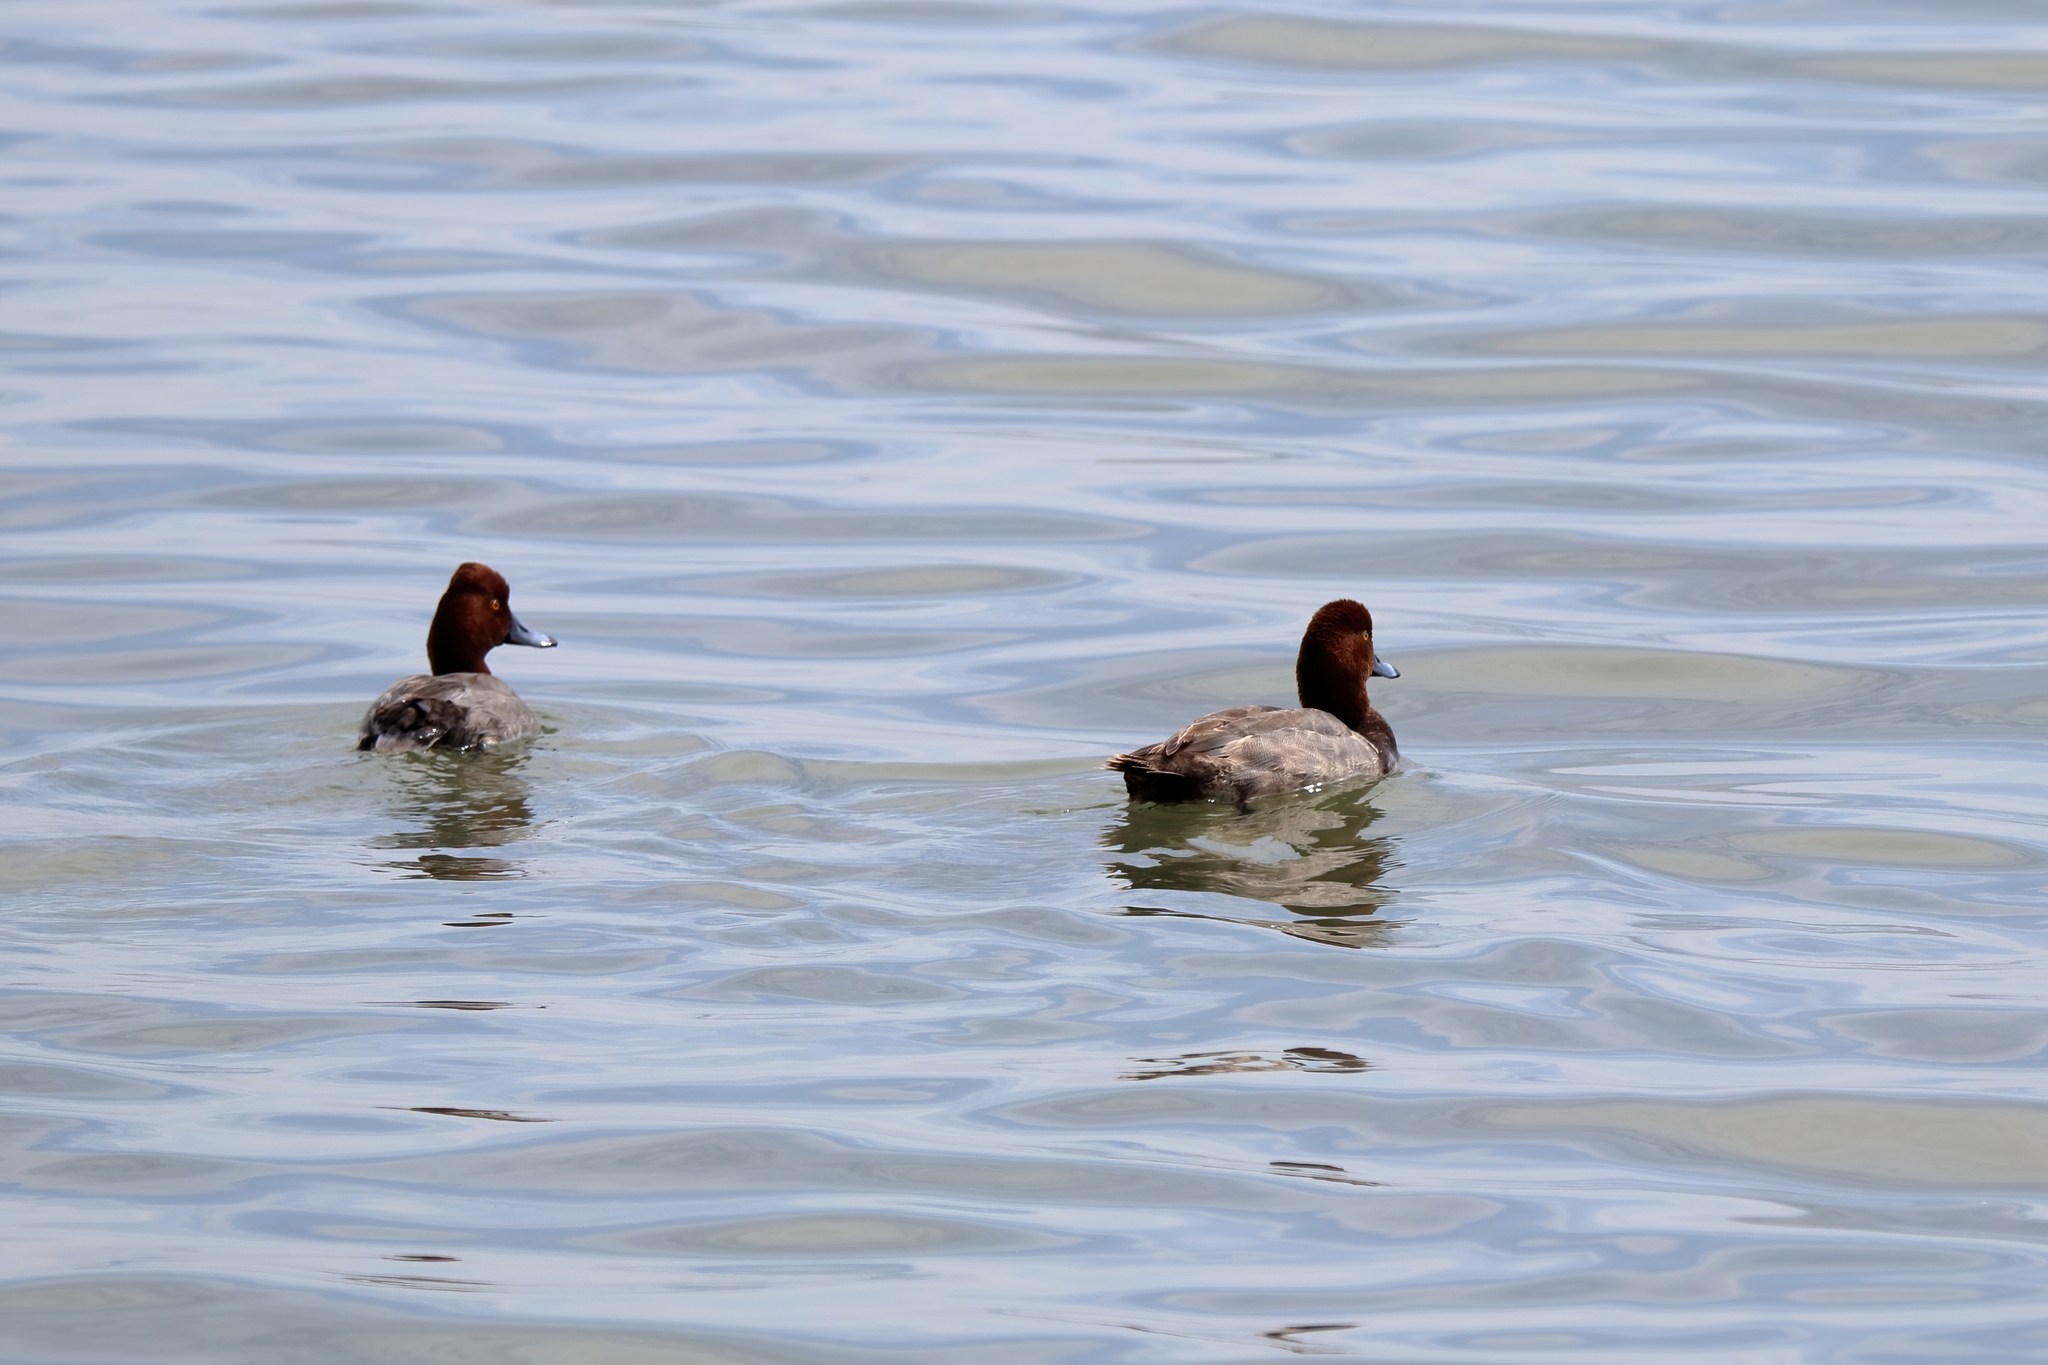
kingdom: Animalia
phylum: Chordata
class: Aves
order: Anseriformes
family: Anatidae
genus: Aythya
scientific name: Aythya americana
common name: Redhead
